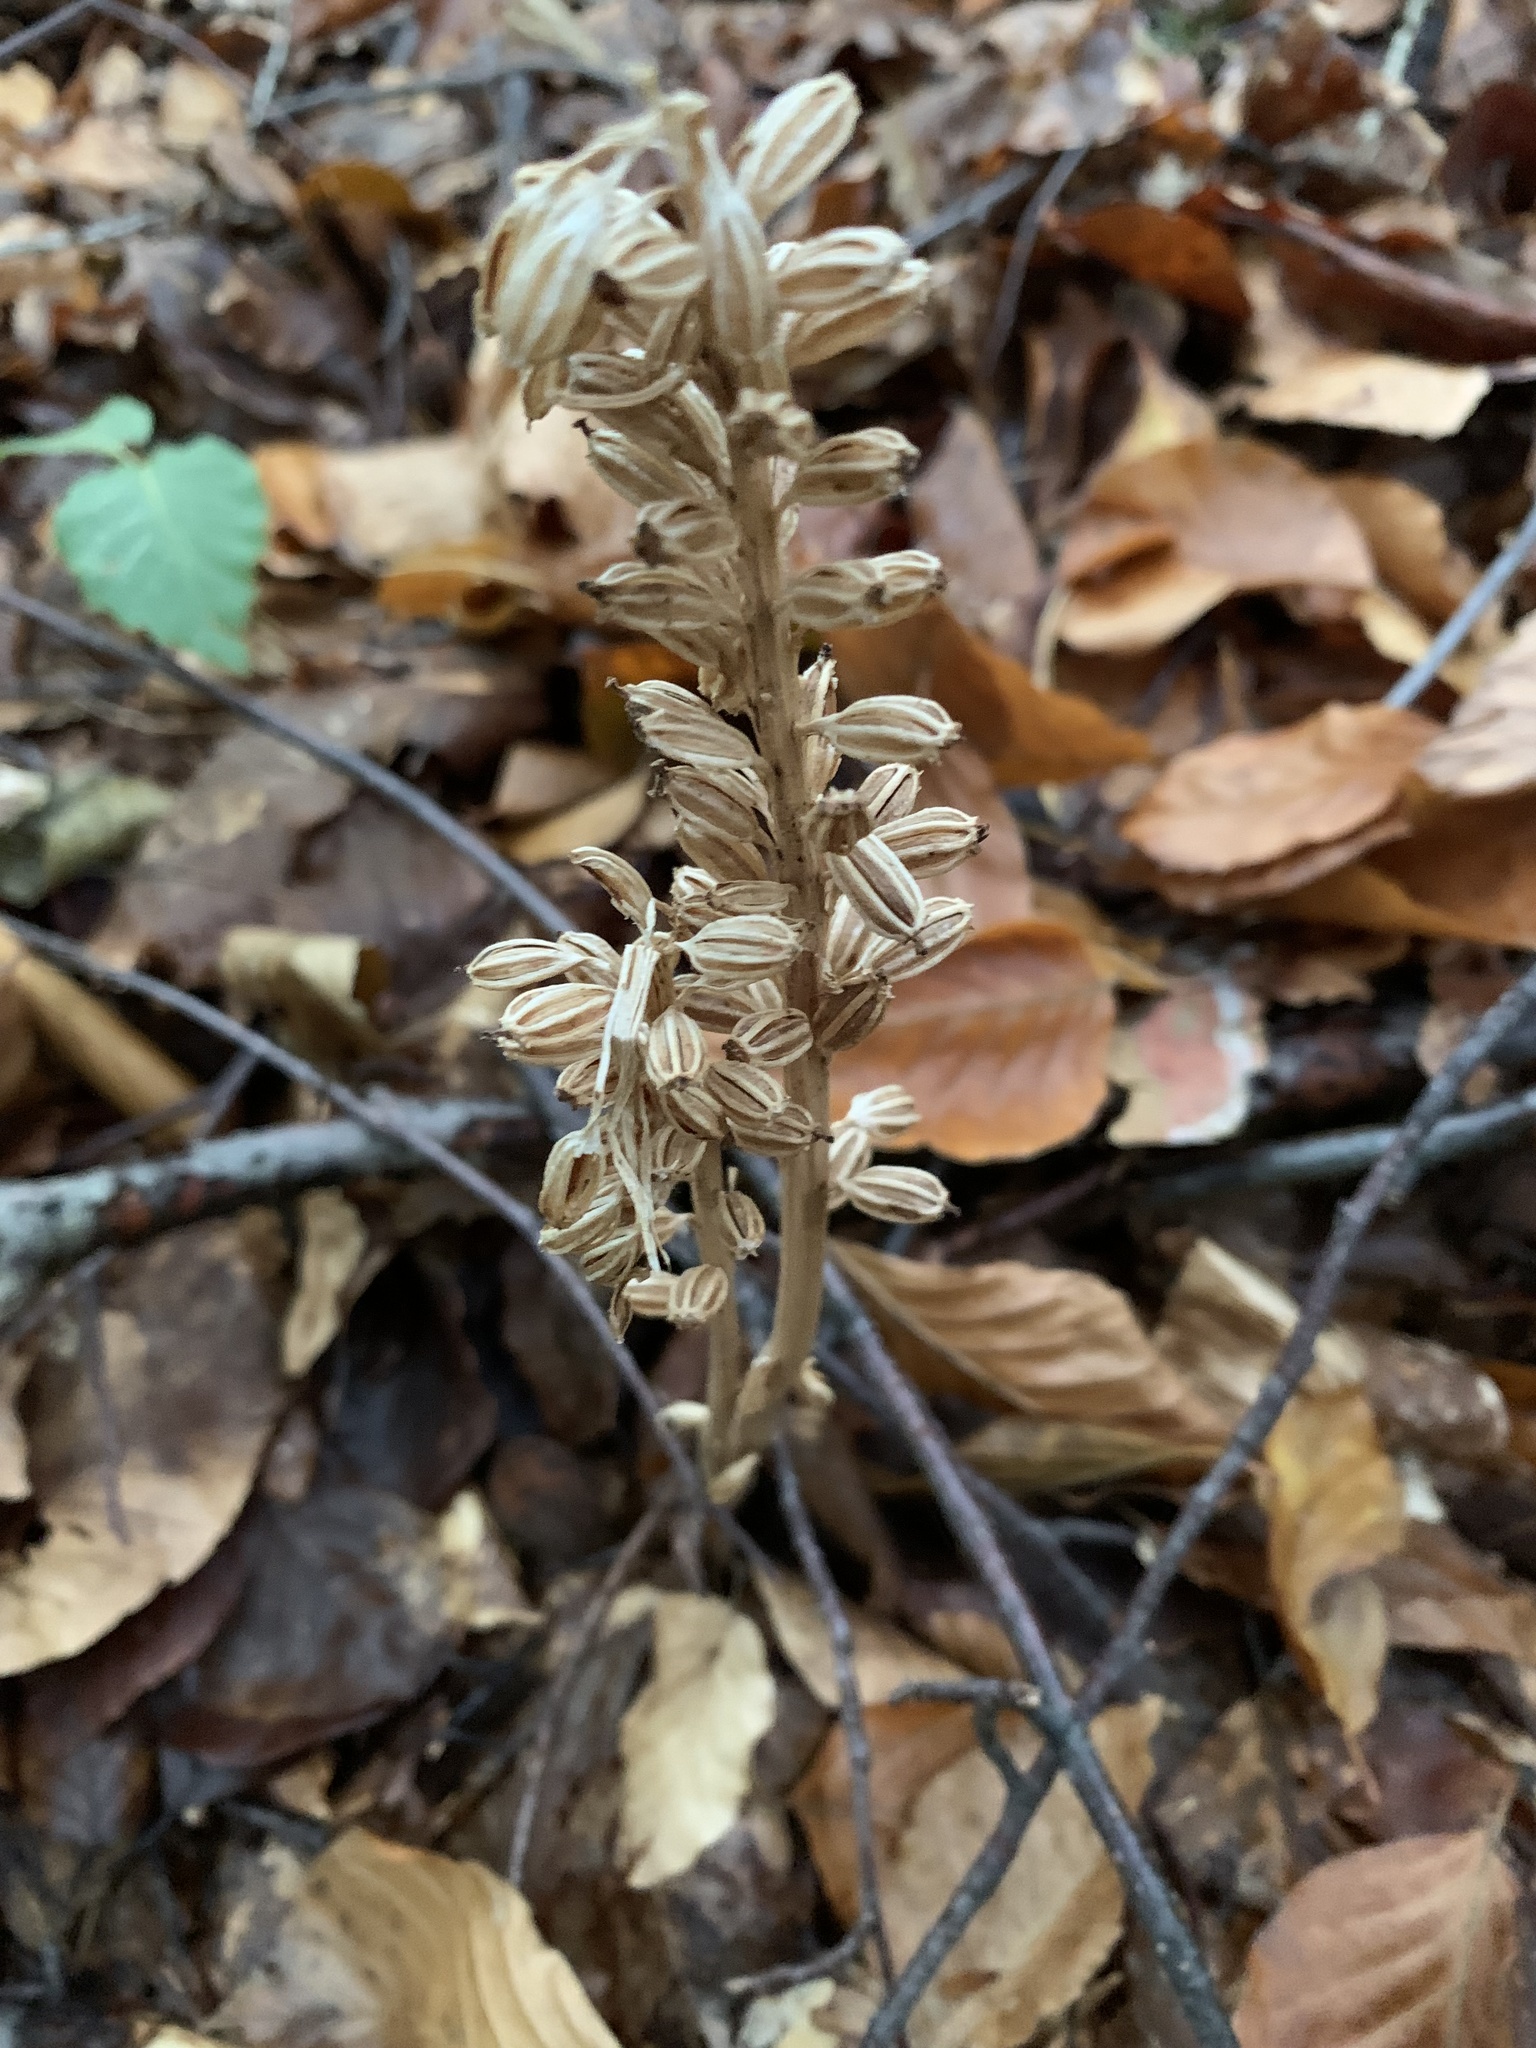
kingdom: Plantae
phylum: Tracheophyta
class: Liliopsida
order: Asparagales
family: Orchidaceae
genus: Neottia
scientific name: Neottia nidus-avis
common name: Bird's-nest orchid
